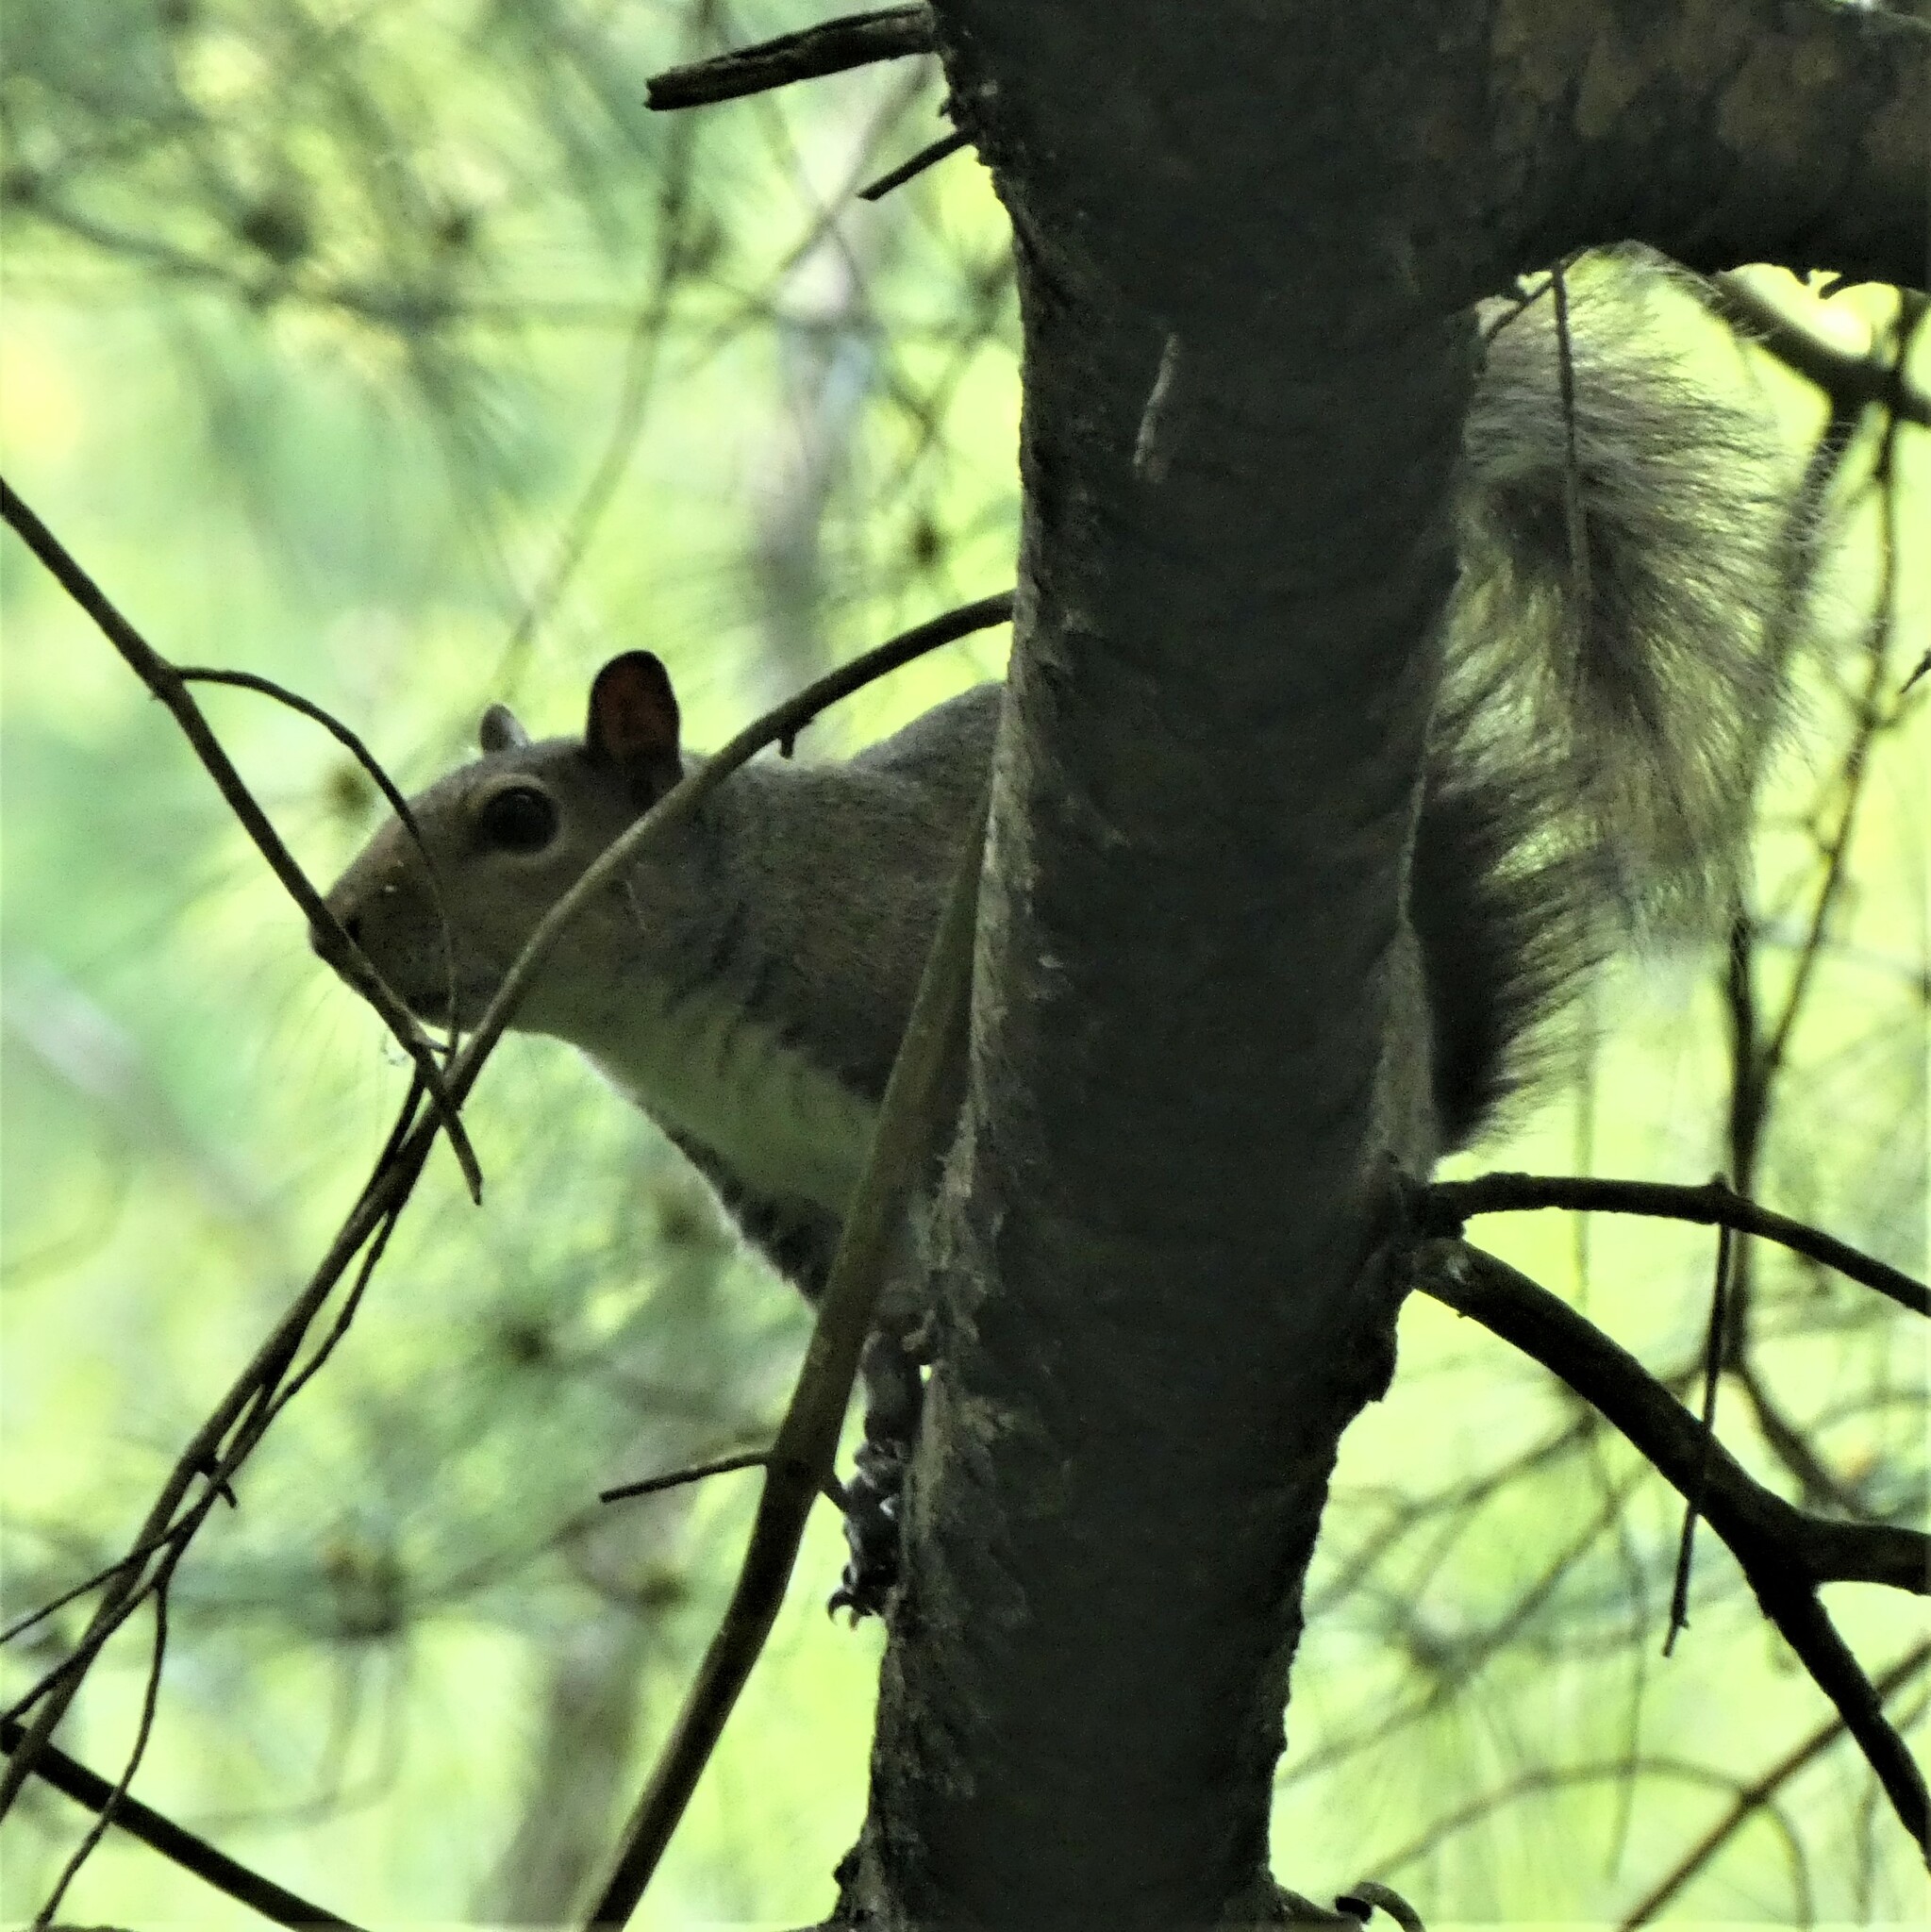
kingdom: Animalia
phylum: Chordata
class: Mammalia
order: Rodentia
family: Sciuridae
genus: Sciurus
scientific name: Sciurus carolinensis
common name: Eastern gray squirrel
